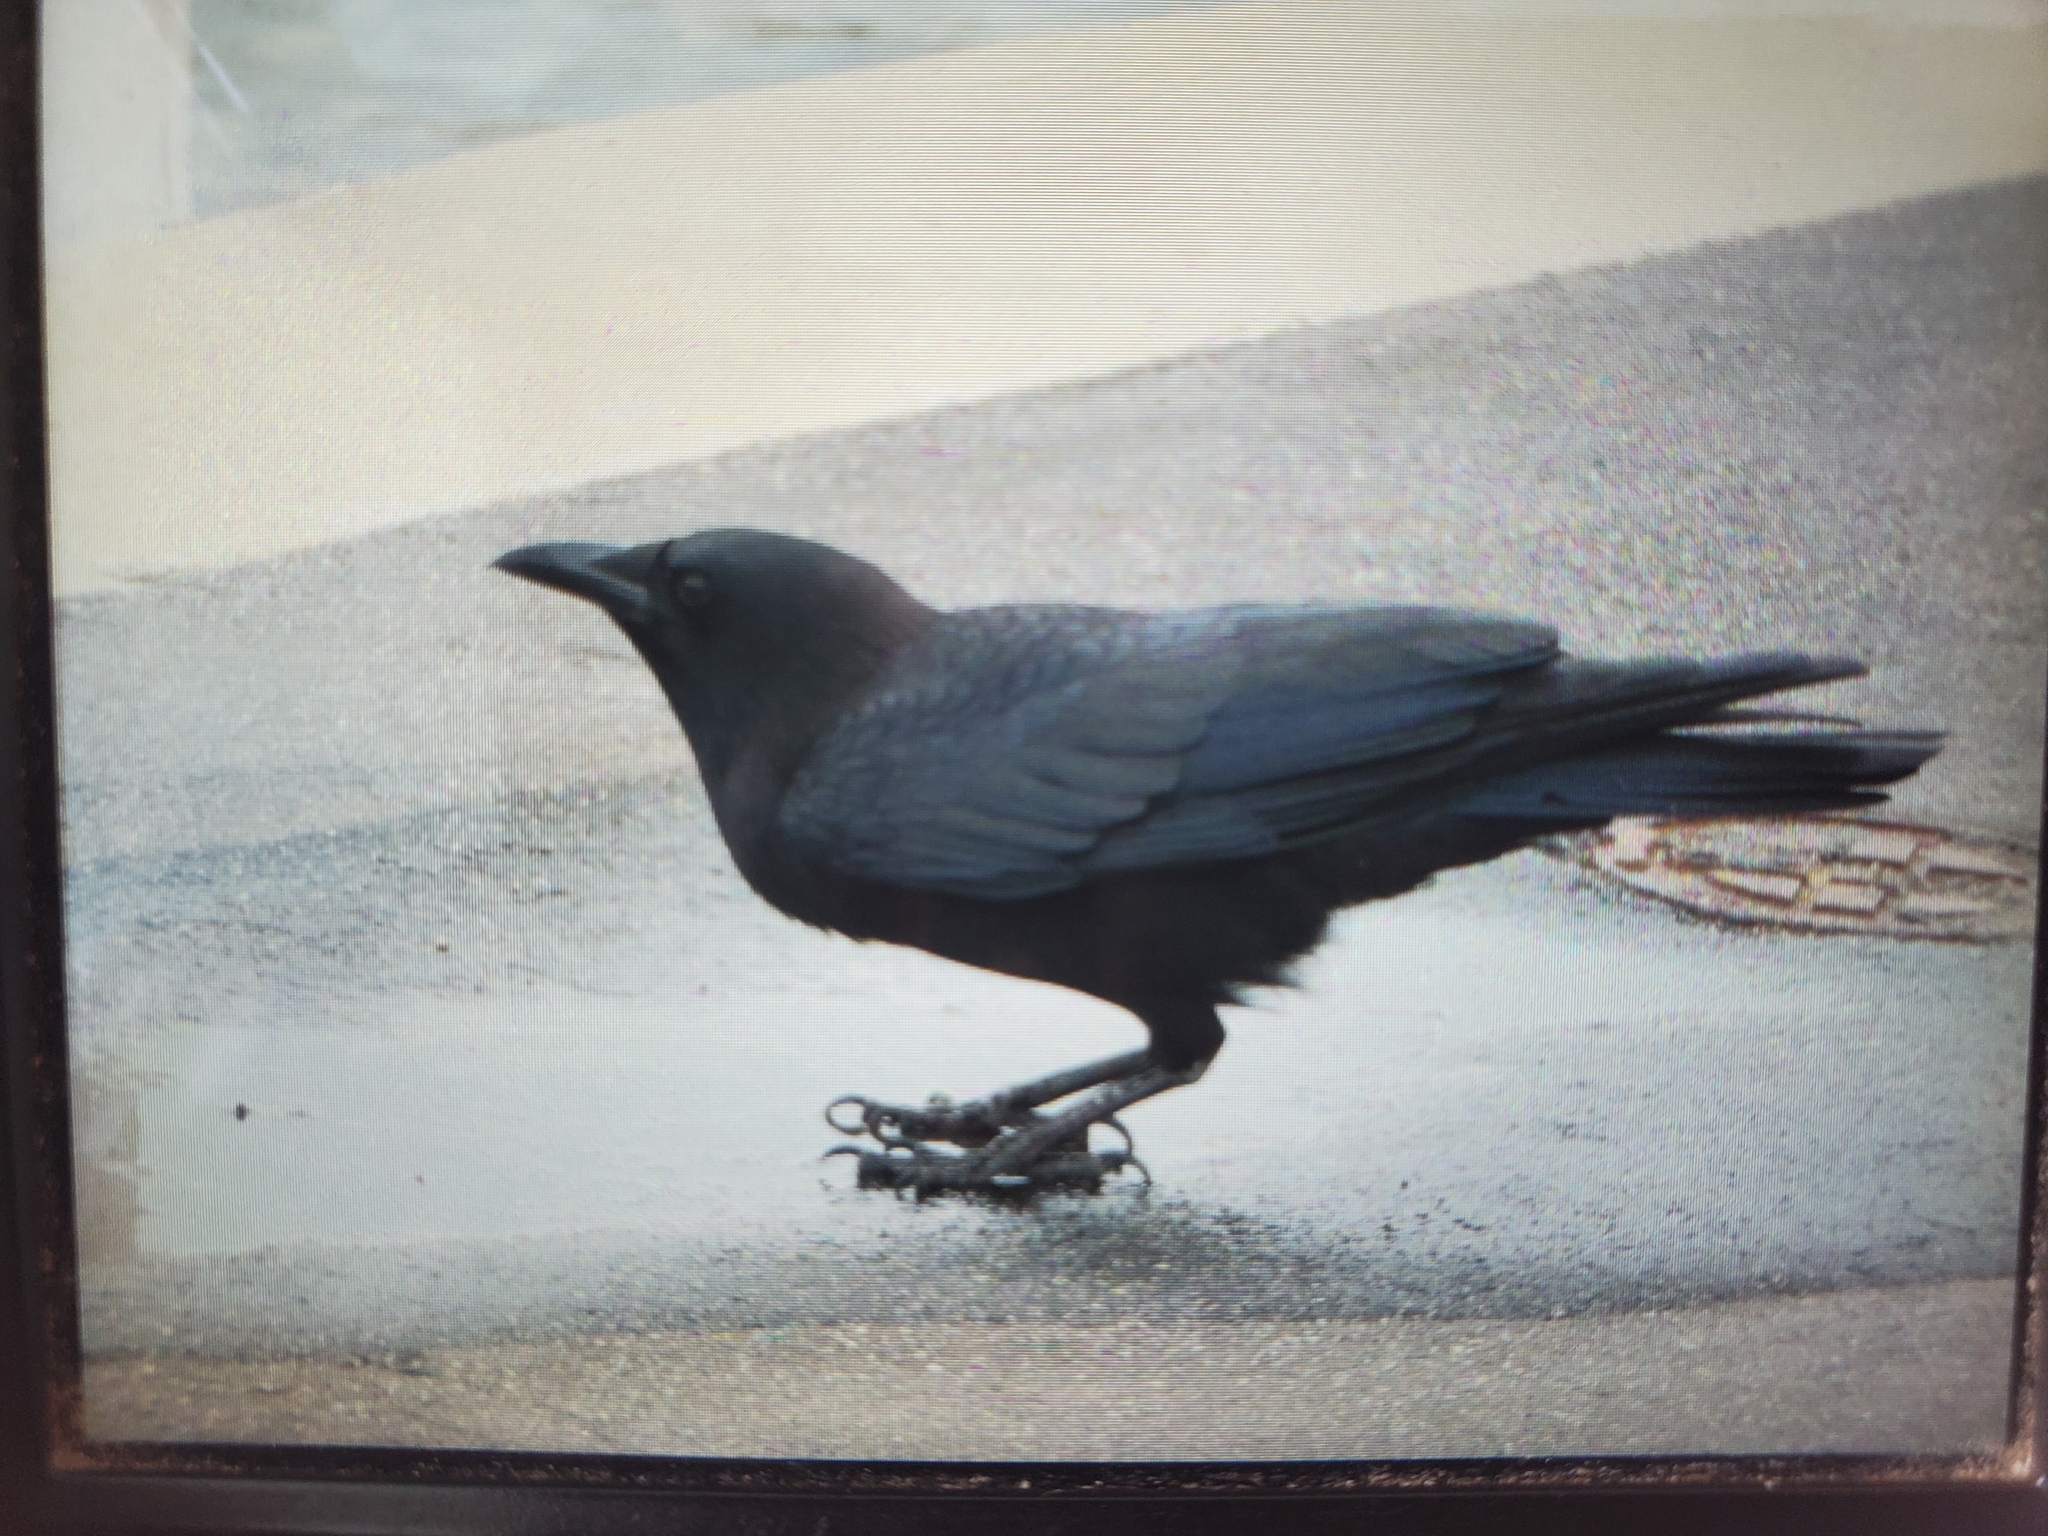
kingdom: Animalia
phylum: Chordata
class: Aves
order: Passeriformes
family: Corvidae
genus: Corvus
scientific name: Corvus brachyrhynchos
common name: American crow
